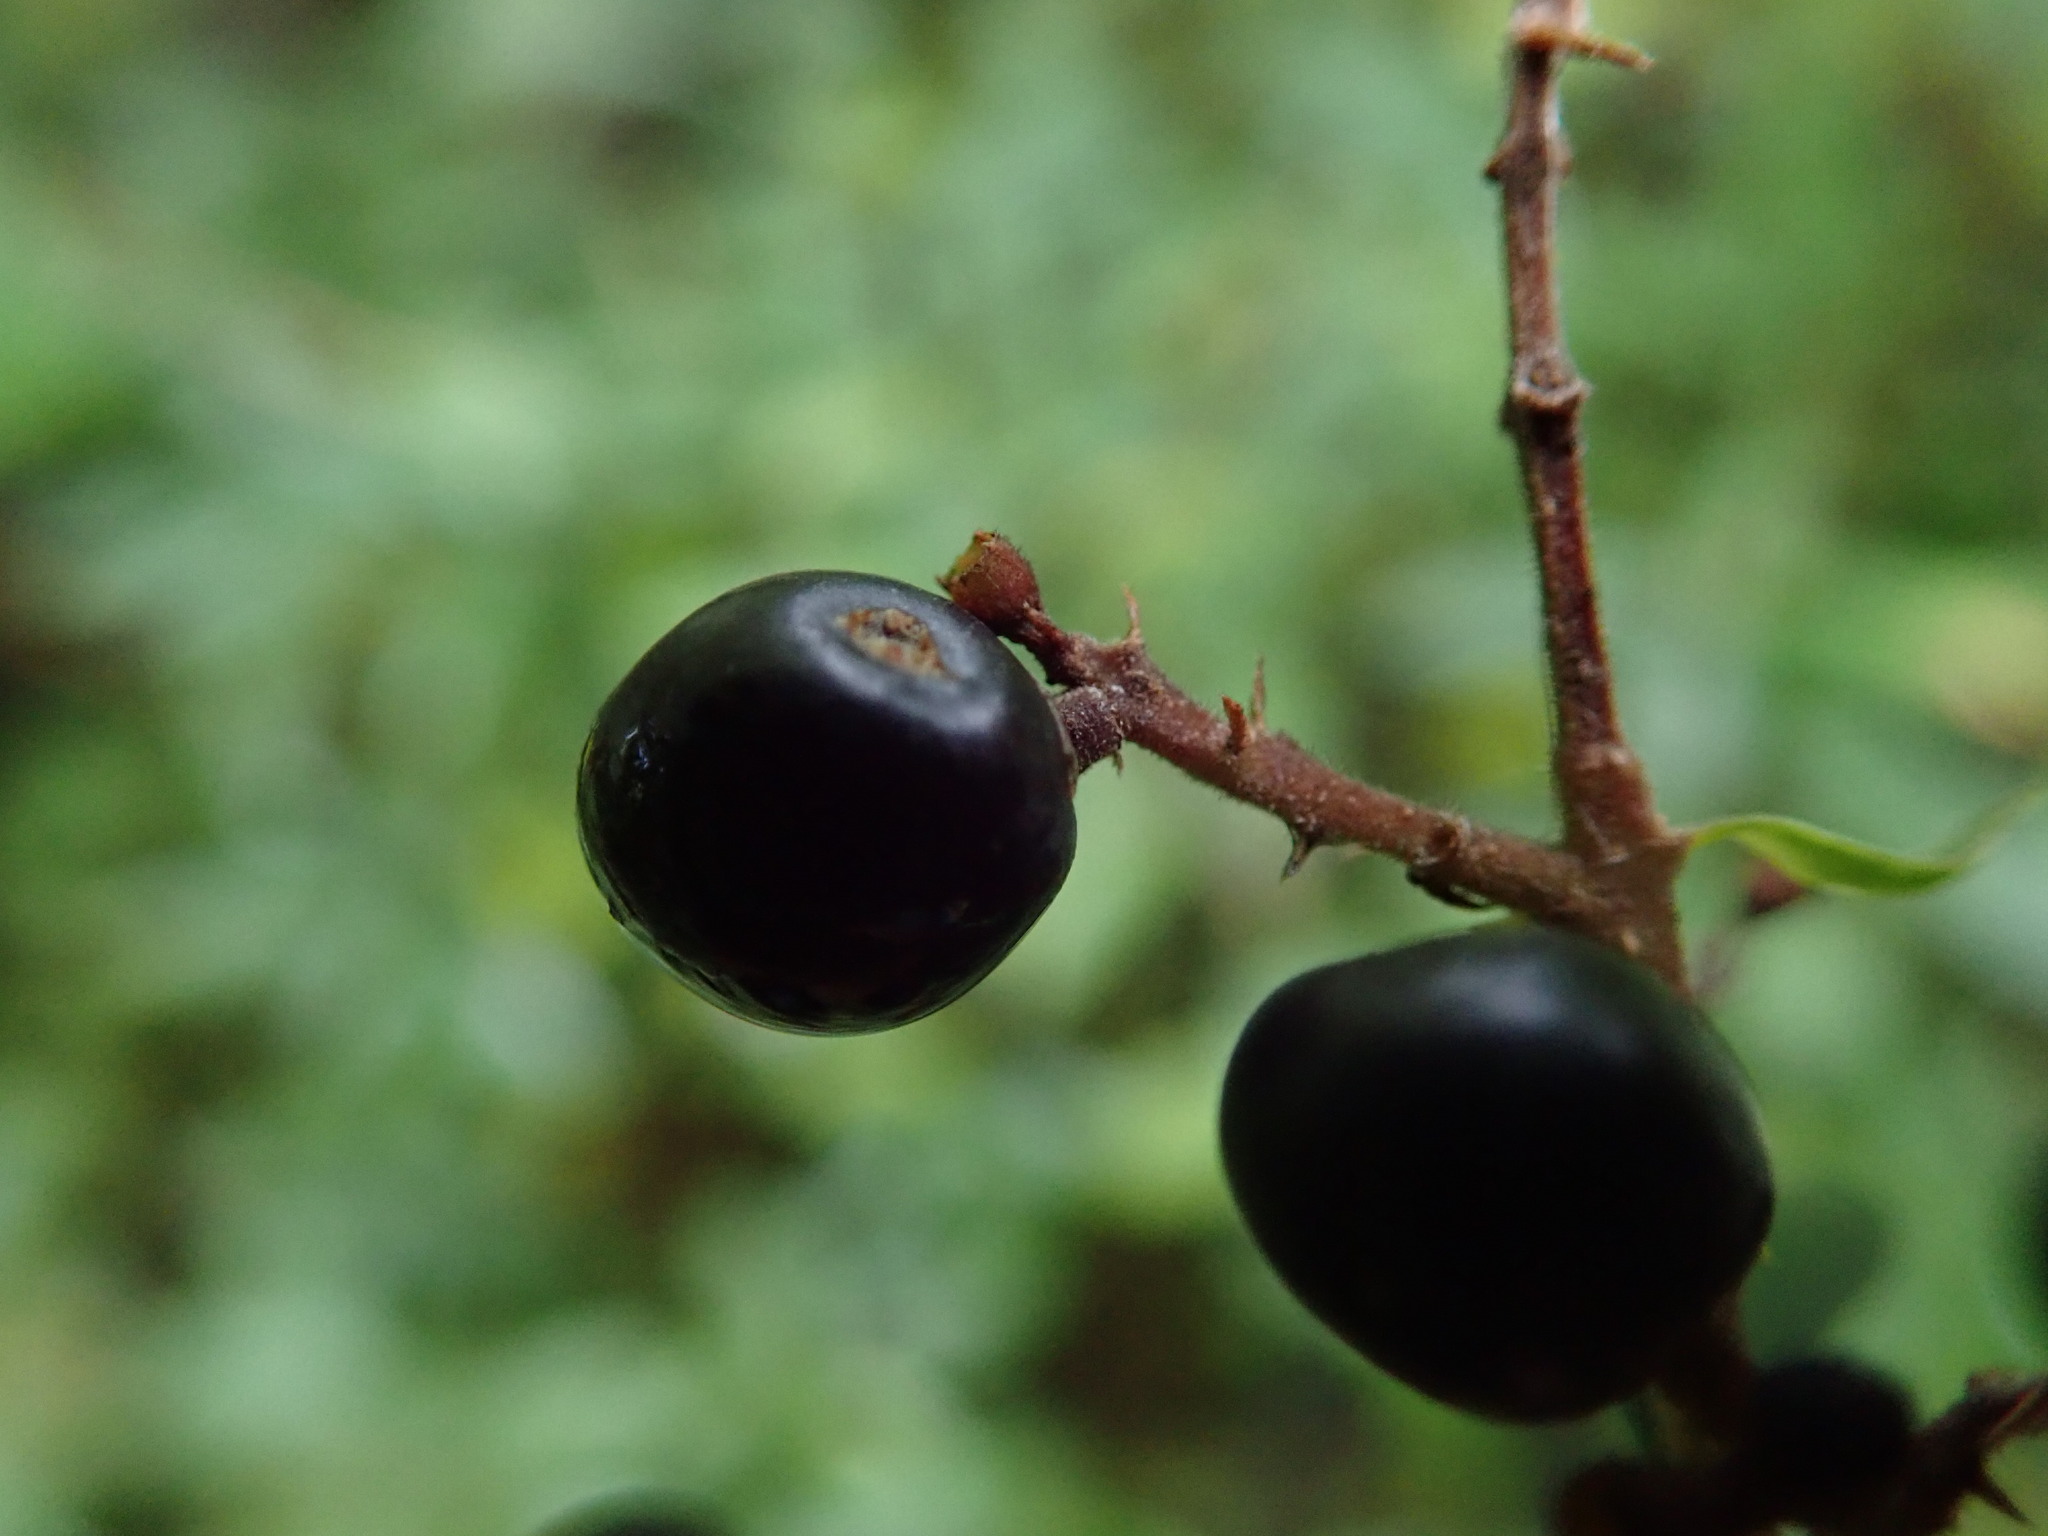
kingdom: Plantae
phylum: Tracheophyta
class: Magnoliopsida
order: Lamiales
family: Oleaceae
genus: Ligustrum
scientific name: Ligustrum vulgare
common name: Wild privet
